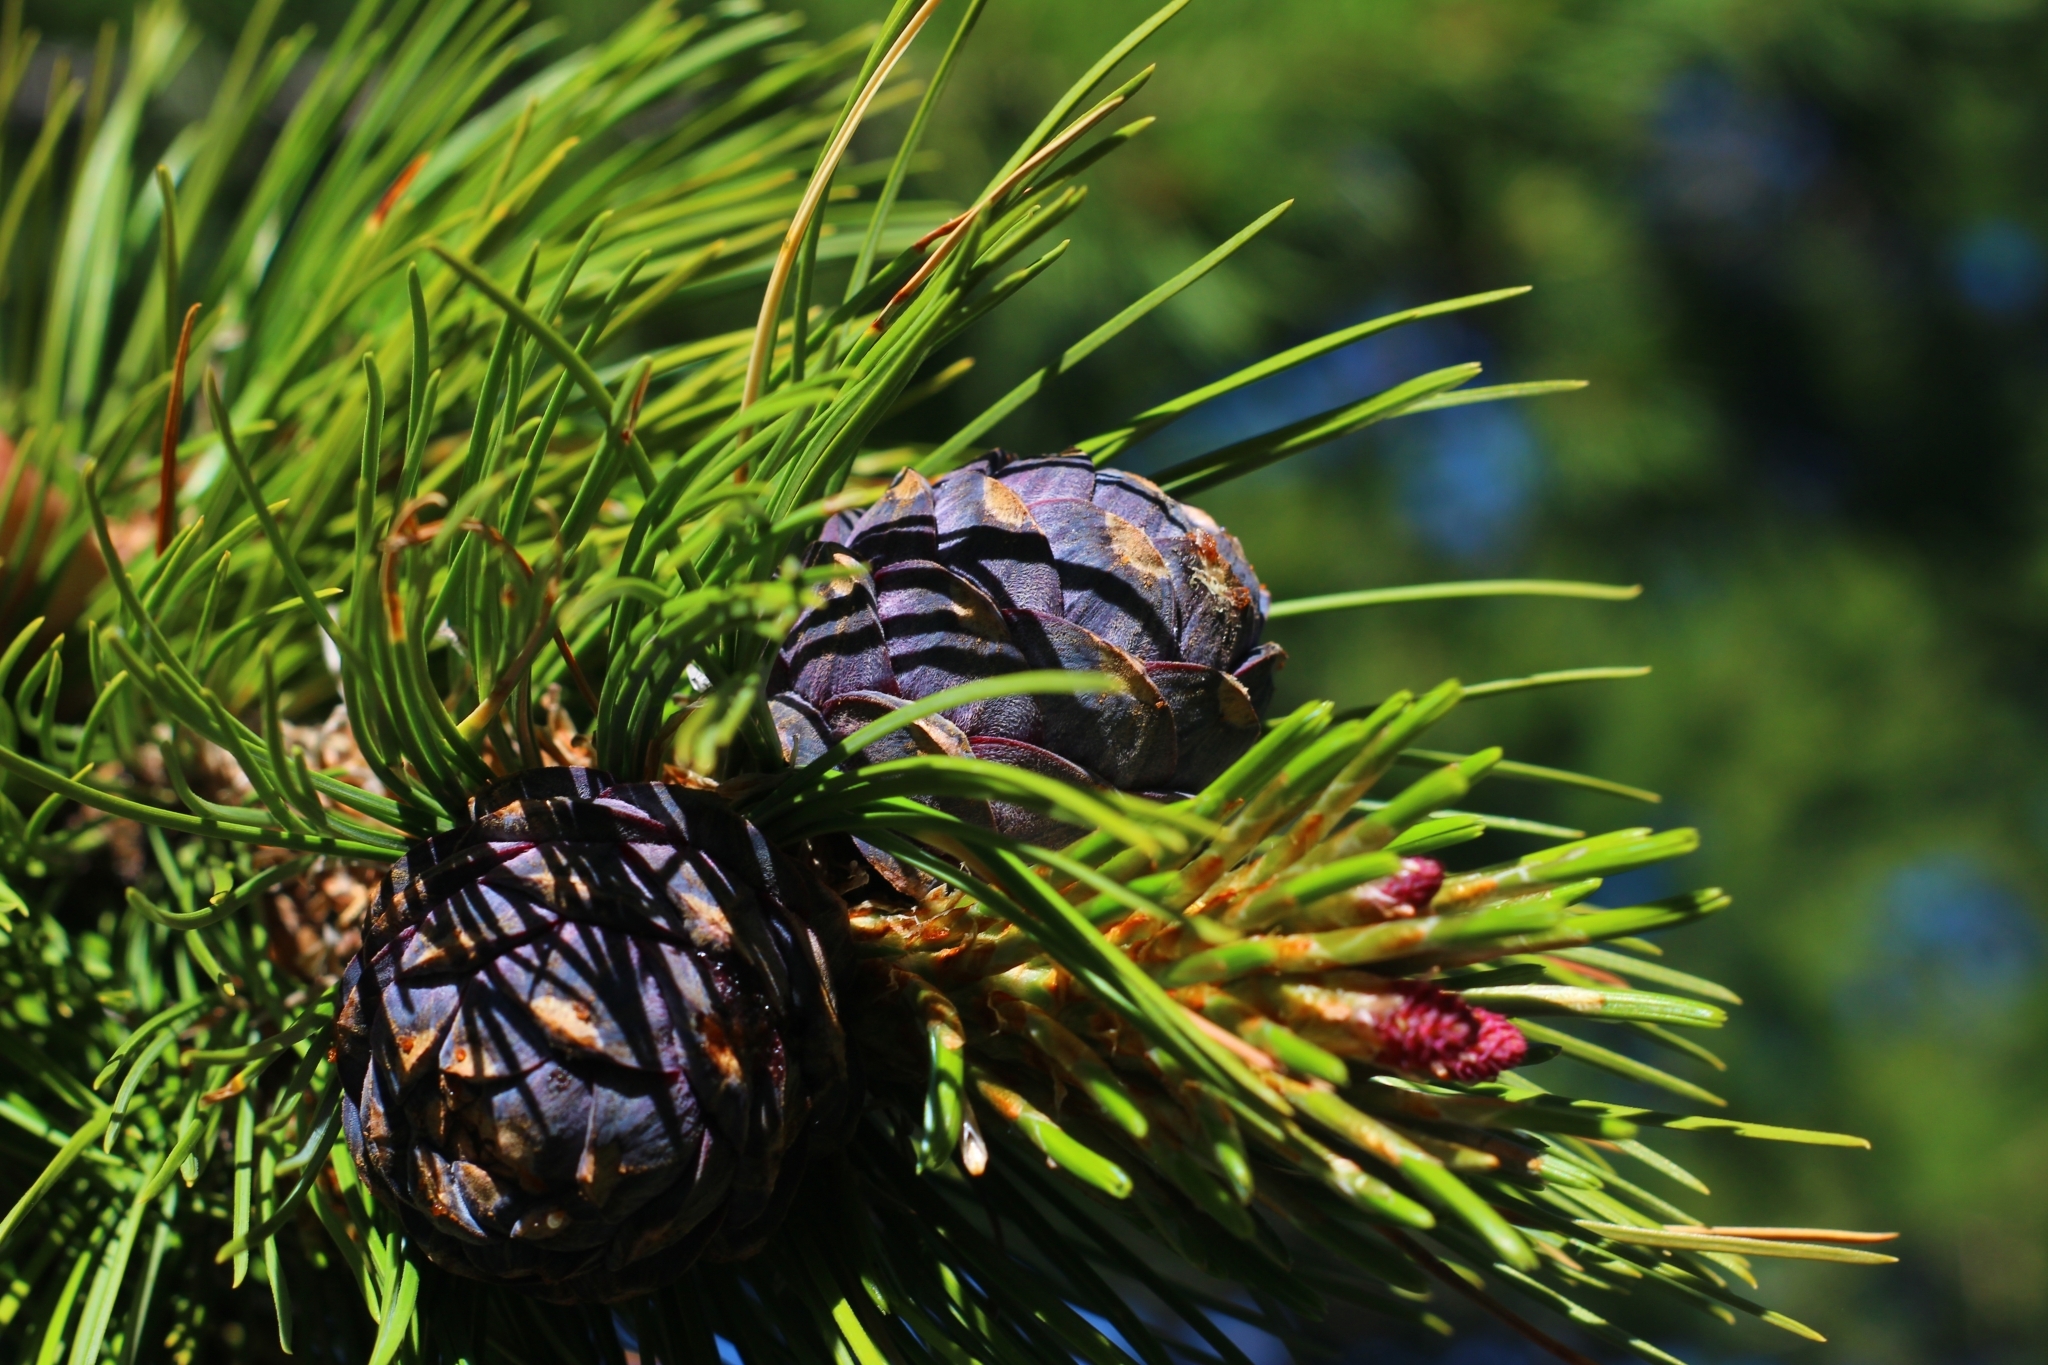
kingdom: Plantae
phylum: Tracheophyta
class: Pinopsida
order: Pinales
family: Pinaceae
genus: Pinus
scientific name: Pinus cembra
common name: Arolla pine
